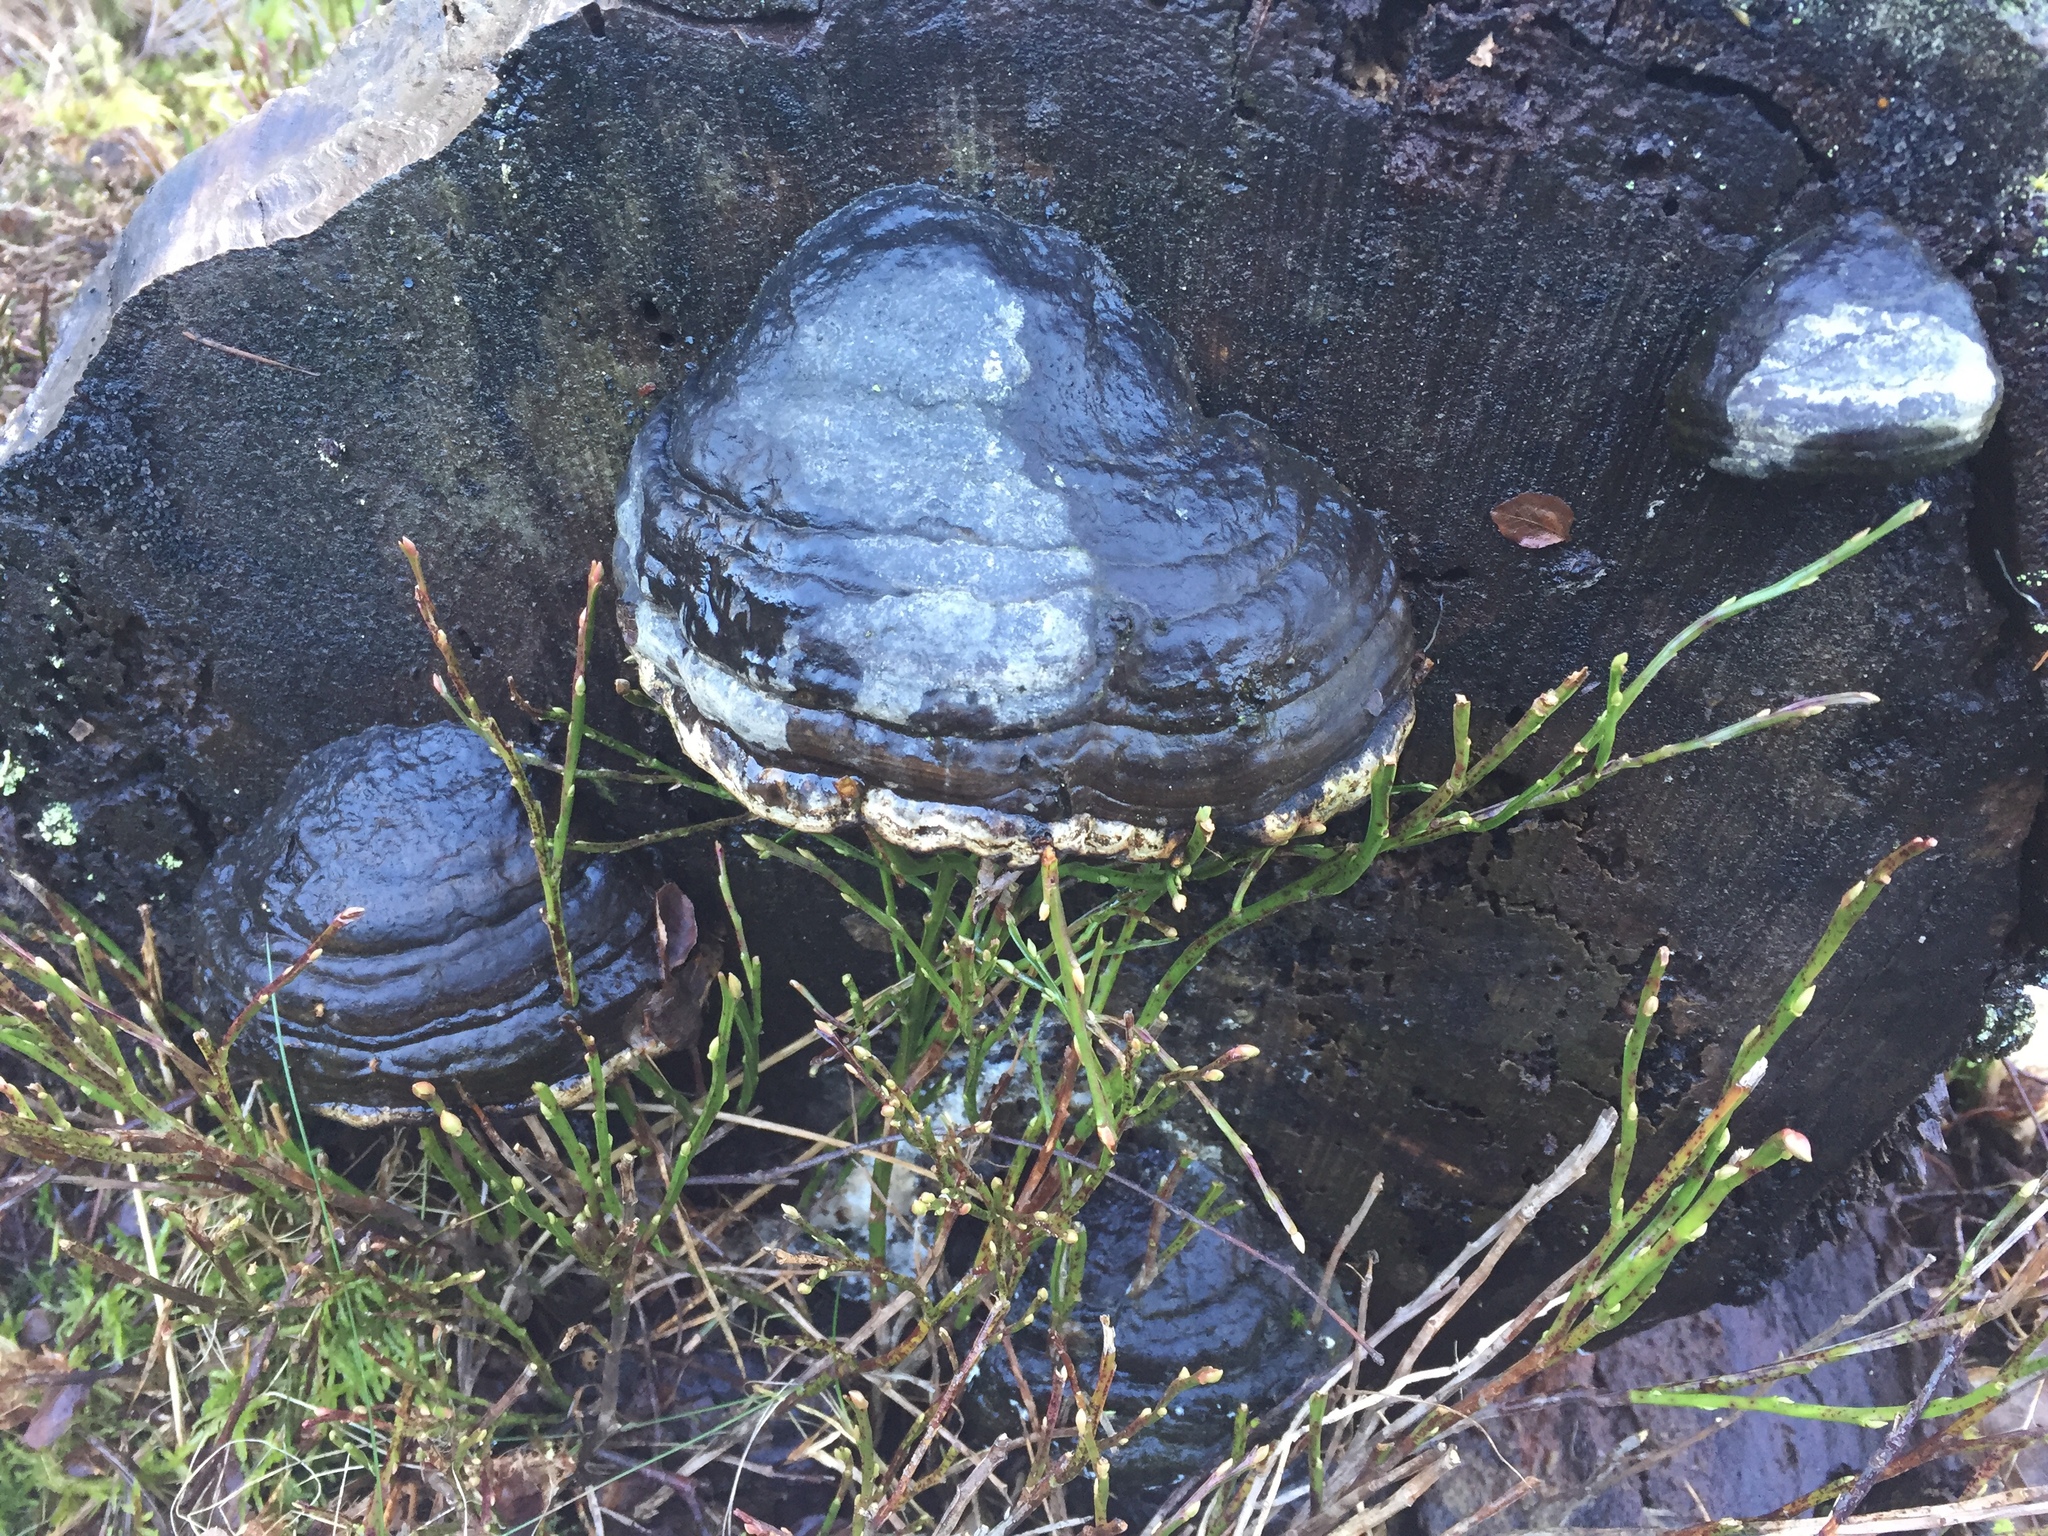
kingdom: Fungi
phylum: Basidiomycota
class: Agaricomycetes
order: Polyporales
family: Polyporaceae
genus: Fomes
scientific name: Fomes fomentarius
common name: Hoof fungus
